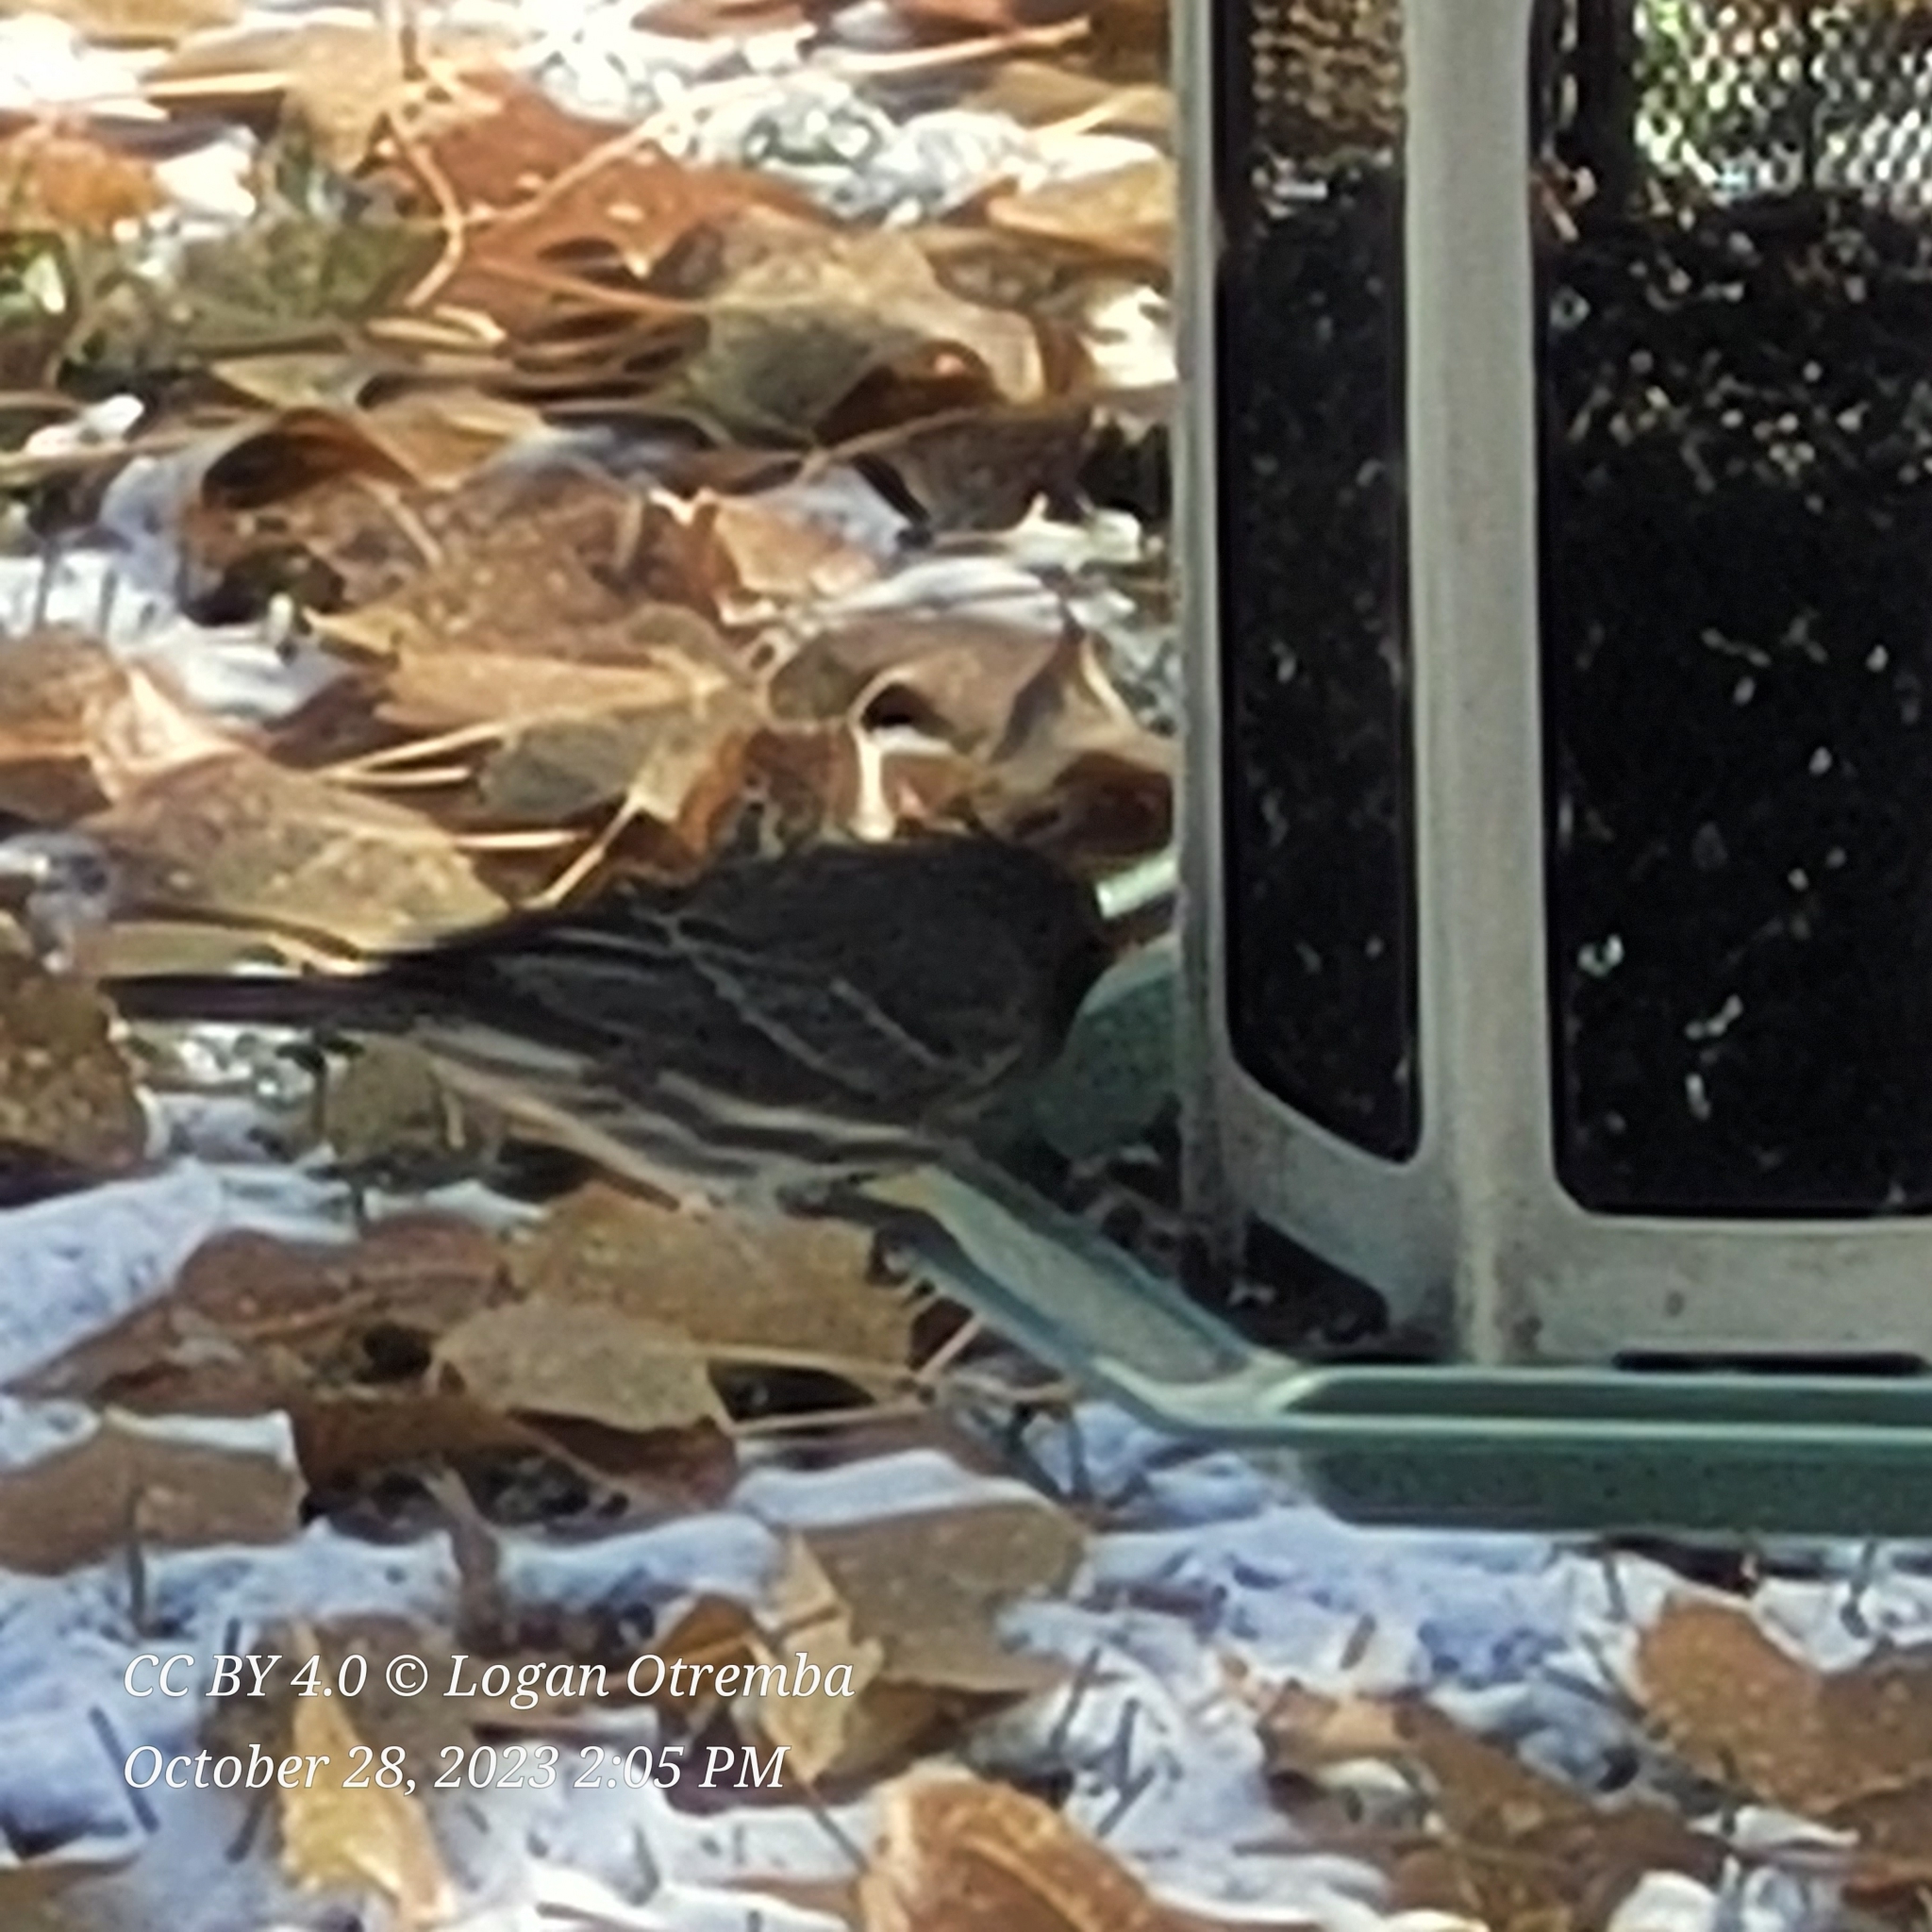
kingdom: Animalia
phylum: Chordata
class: Aves
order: Passeriformes
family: Fringillidae
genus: Haemorhous
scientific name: Haemorhous mexicanus
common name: House finch
